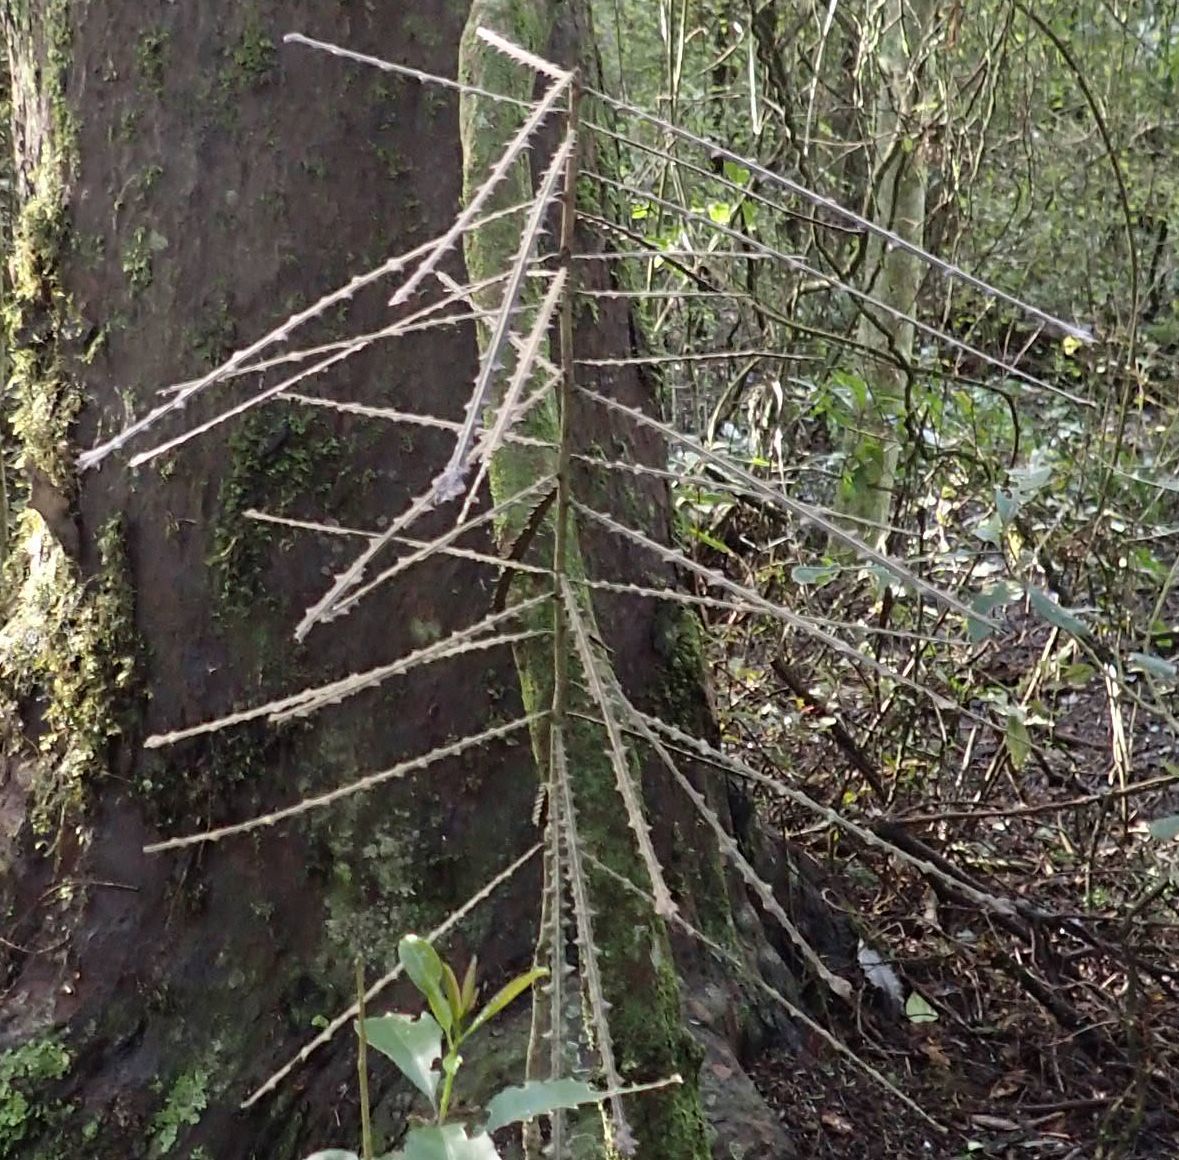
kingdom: Plantae
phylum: Tracheophyta
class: Magnoliopsida
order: Apiales
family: Araliaceae
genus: Pseudopanax
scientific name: Pseudopanax ferox
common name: Fierce lancewood
